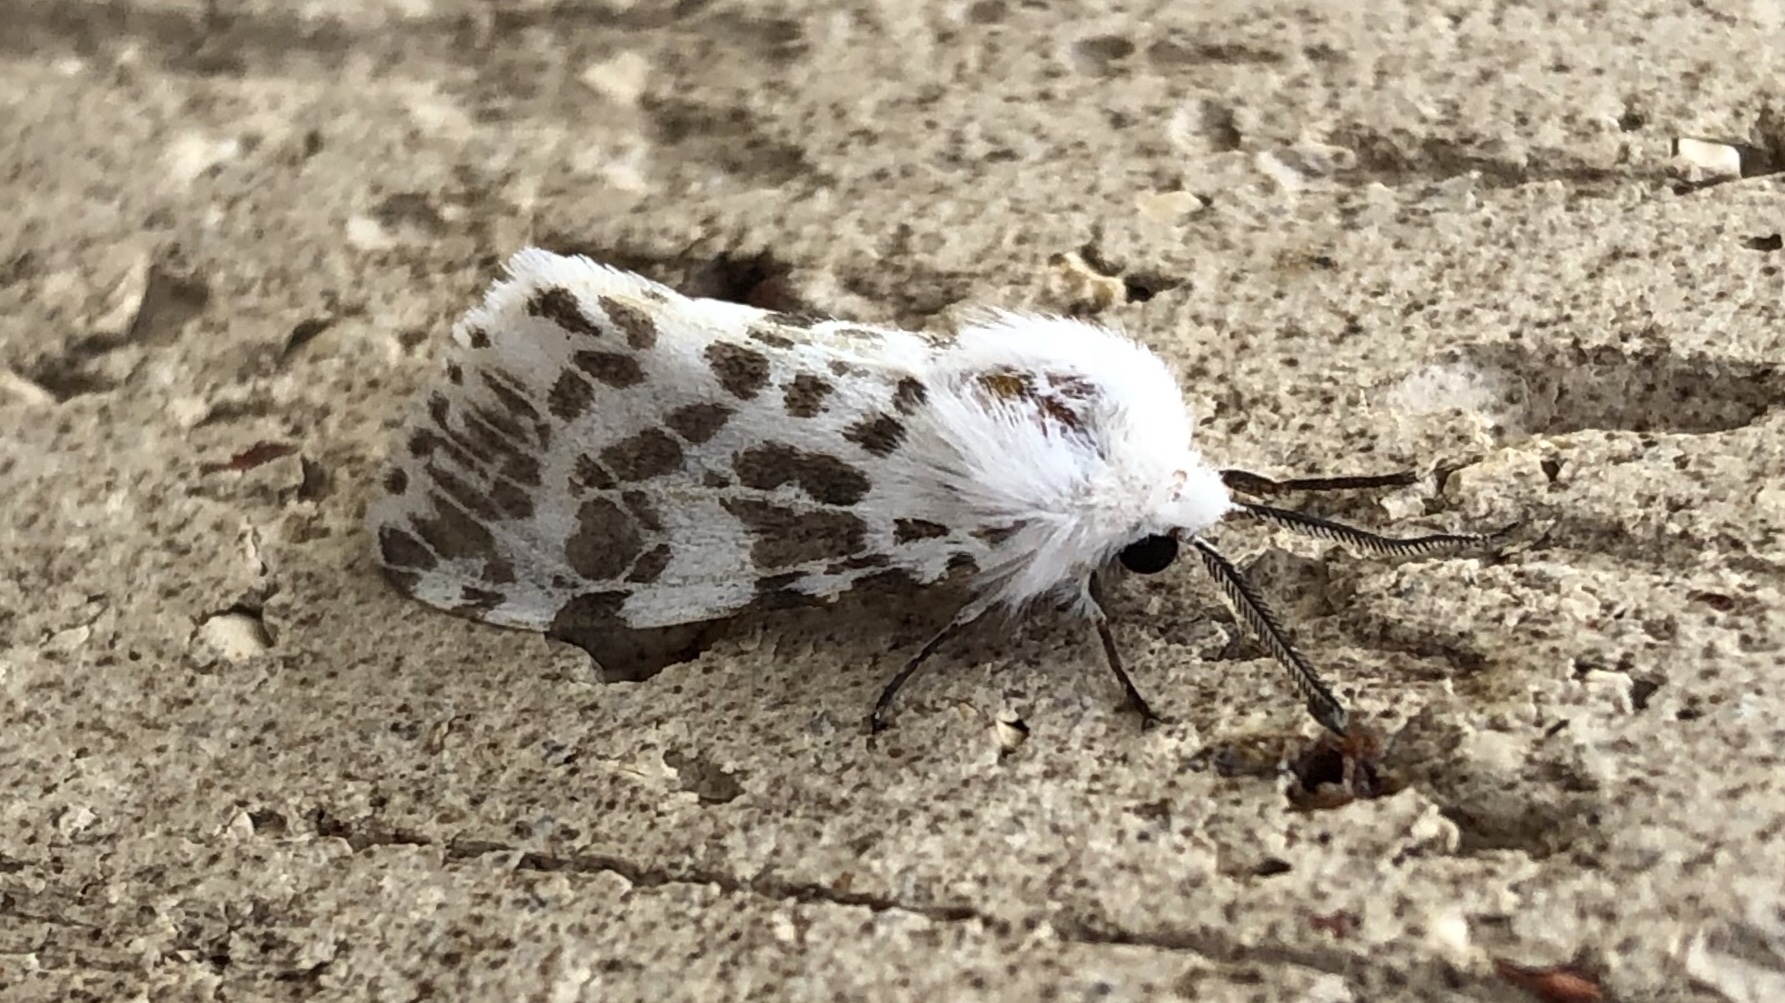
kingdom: Animalia
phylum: Arthropoda
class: Insecta
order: Lepidoptera
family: Erebidae
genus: Hyphantria
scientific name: Hyphantria cunea
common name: American white moth
